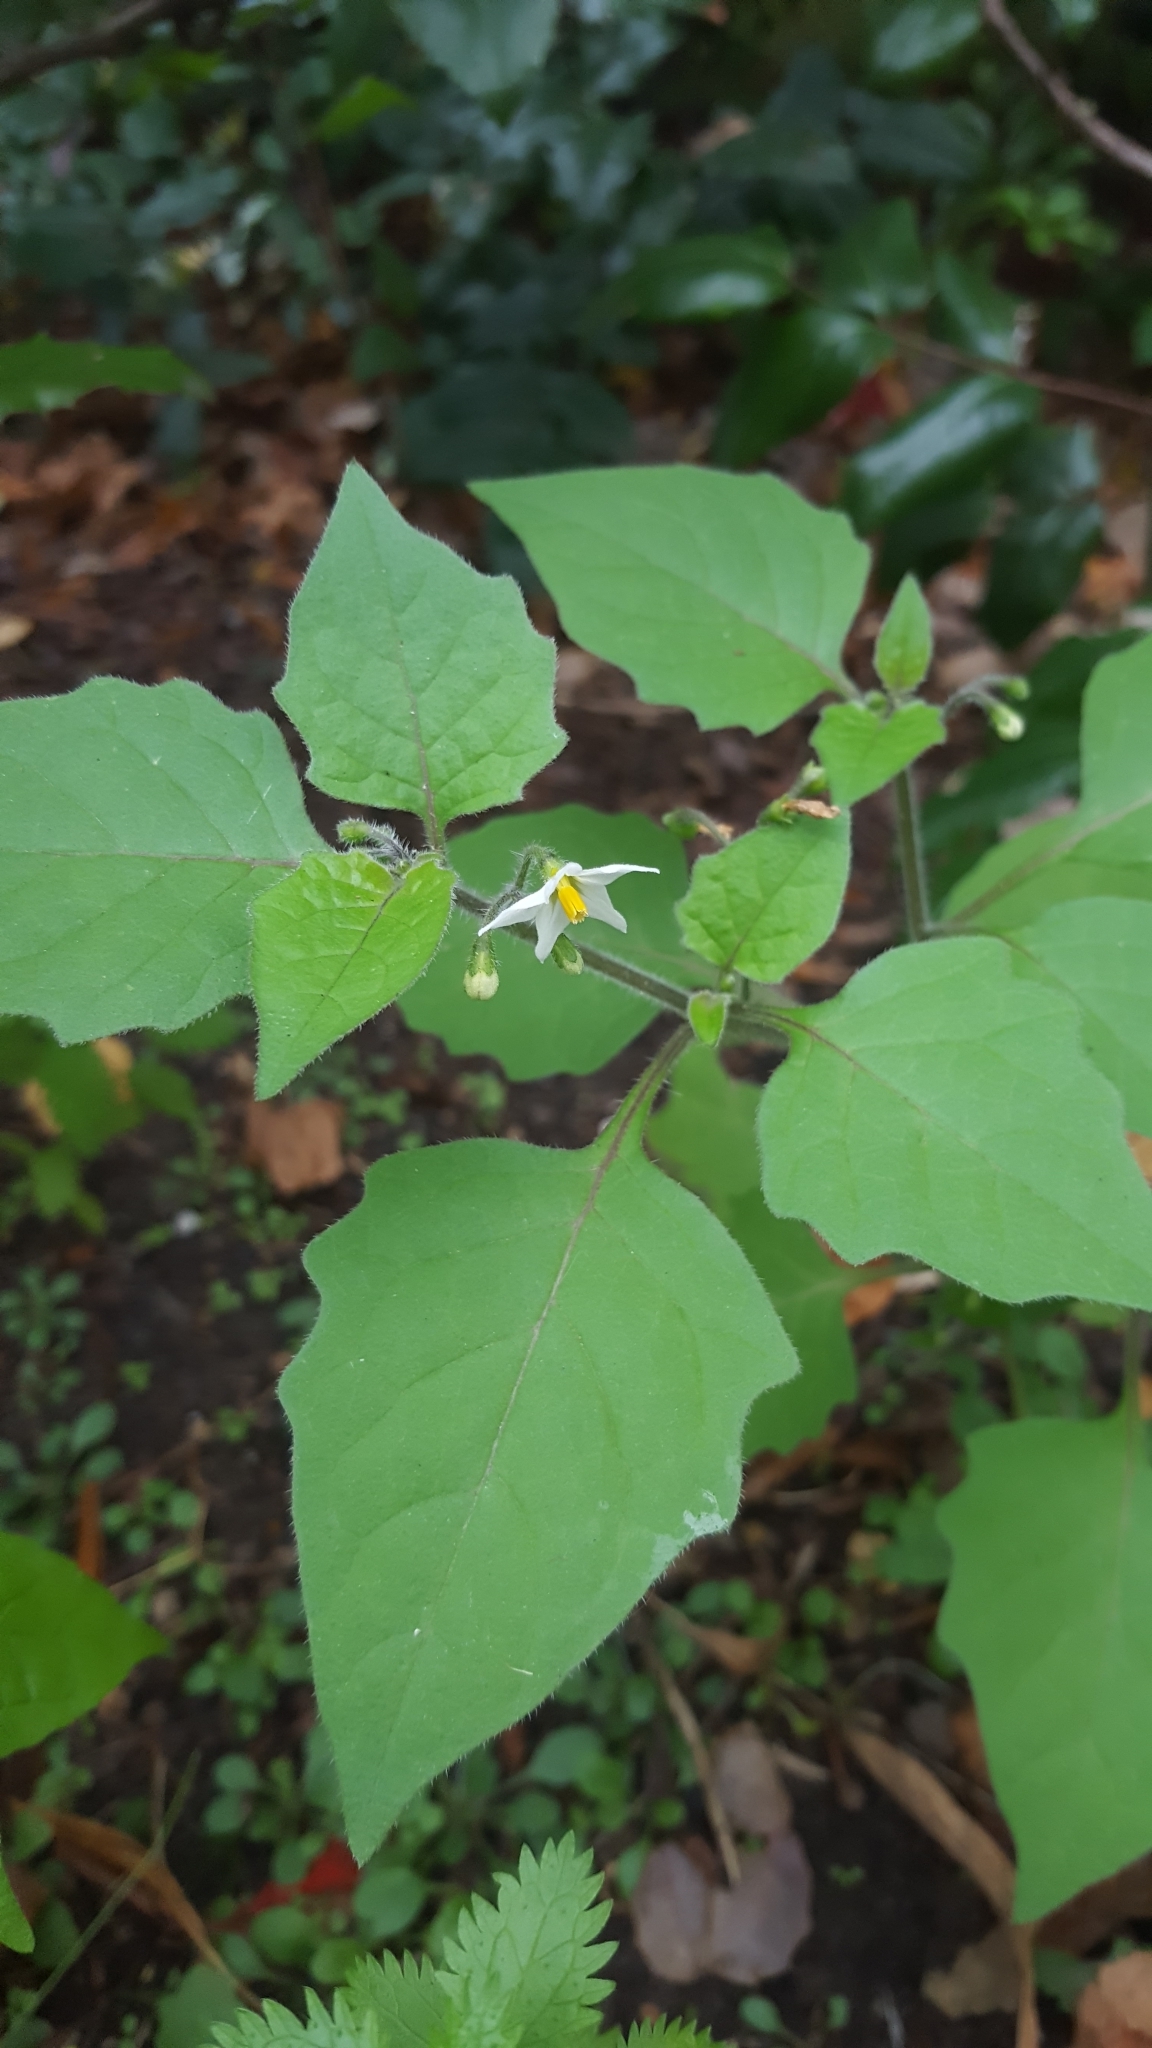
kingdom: Plantae
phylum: Tracheophyta
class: Magnoliopsida
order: Solanales
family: Solanaceae
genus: Solanum
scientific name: Solanum nigrum
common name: Black nightshade
